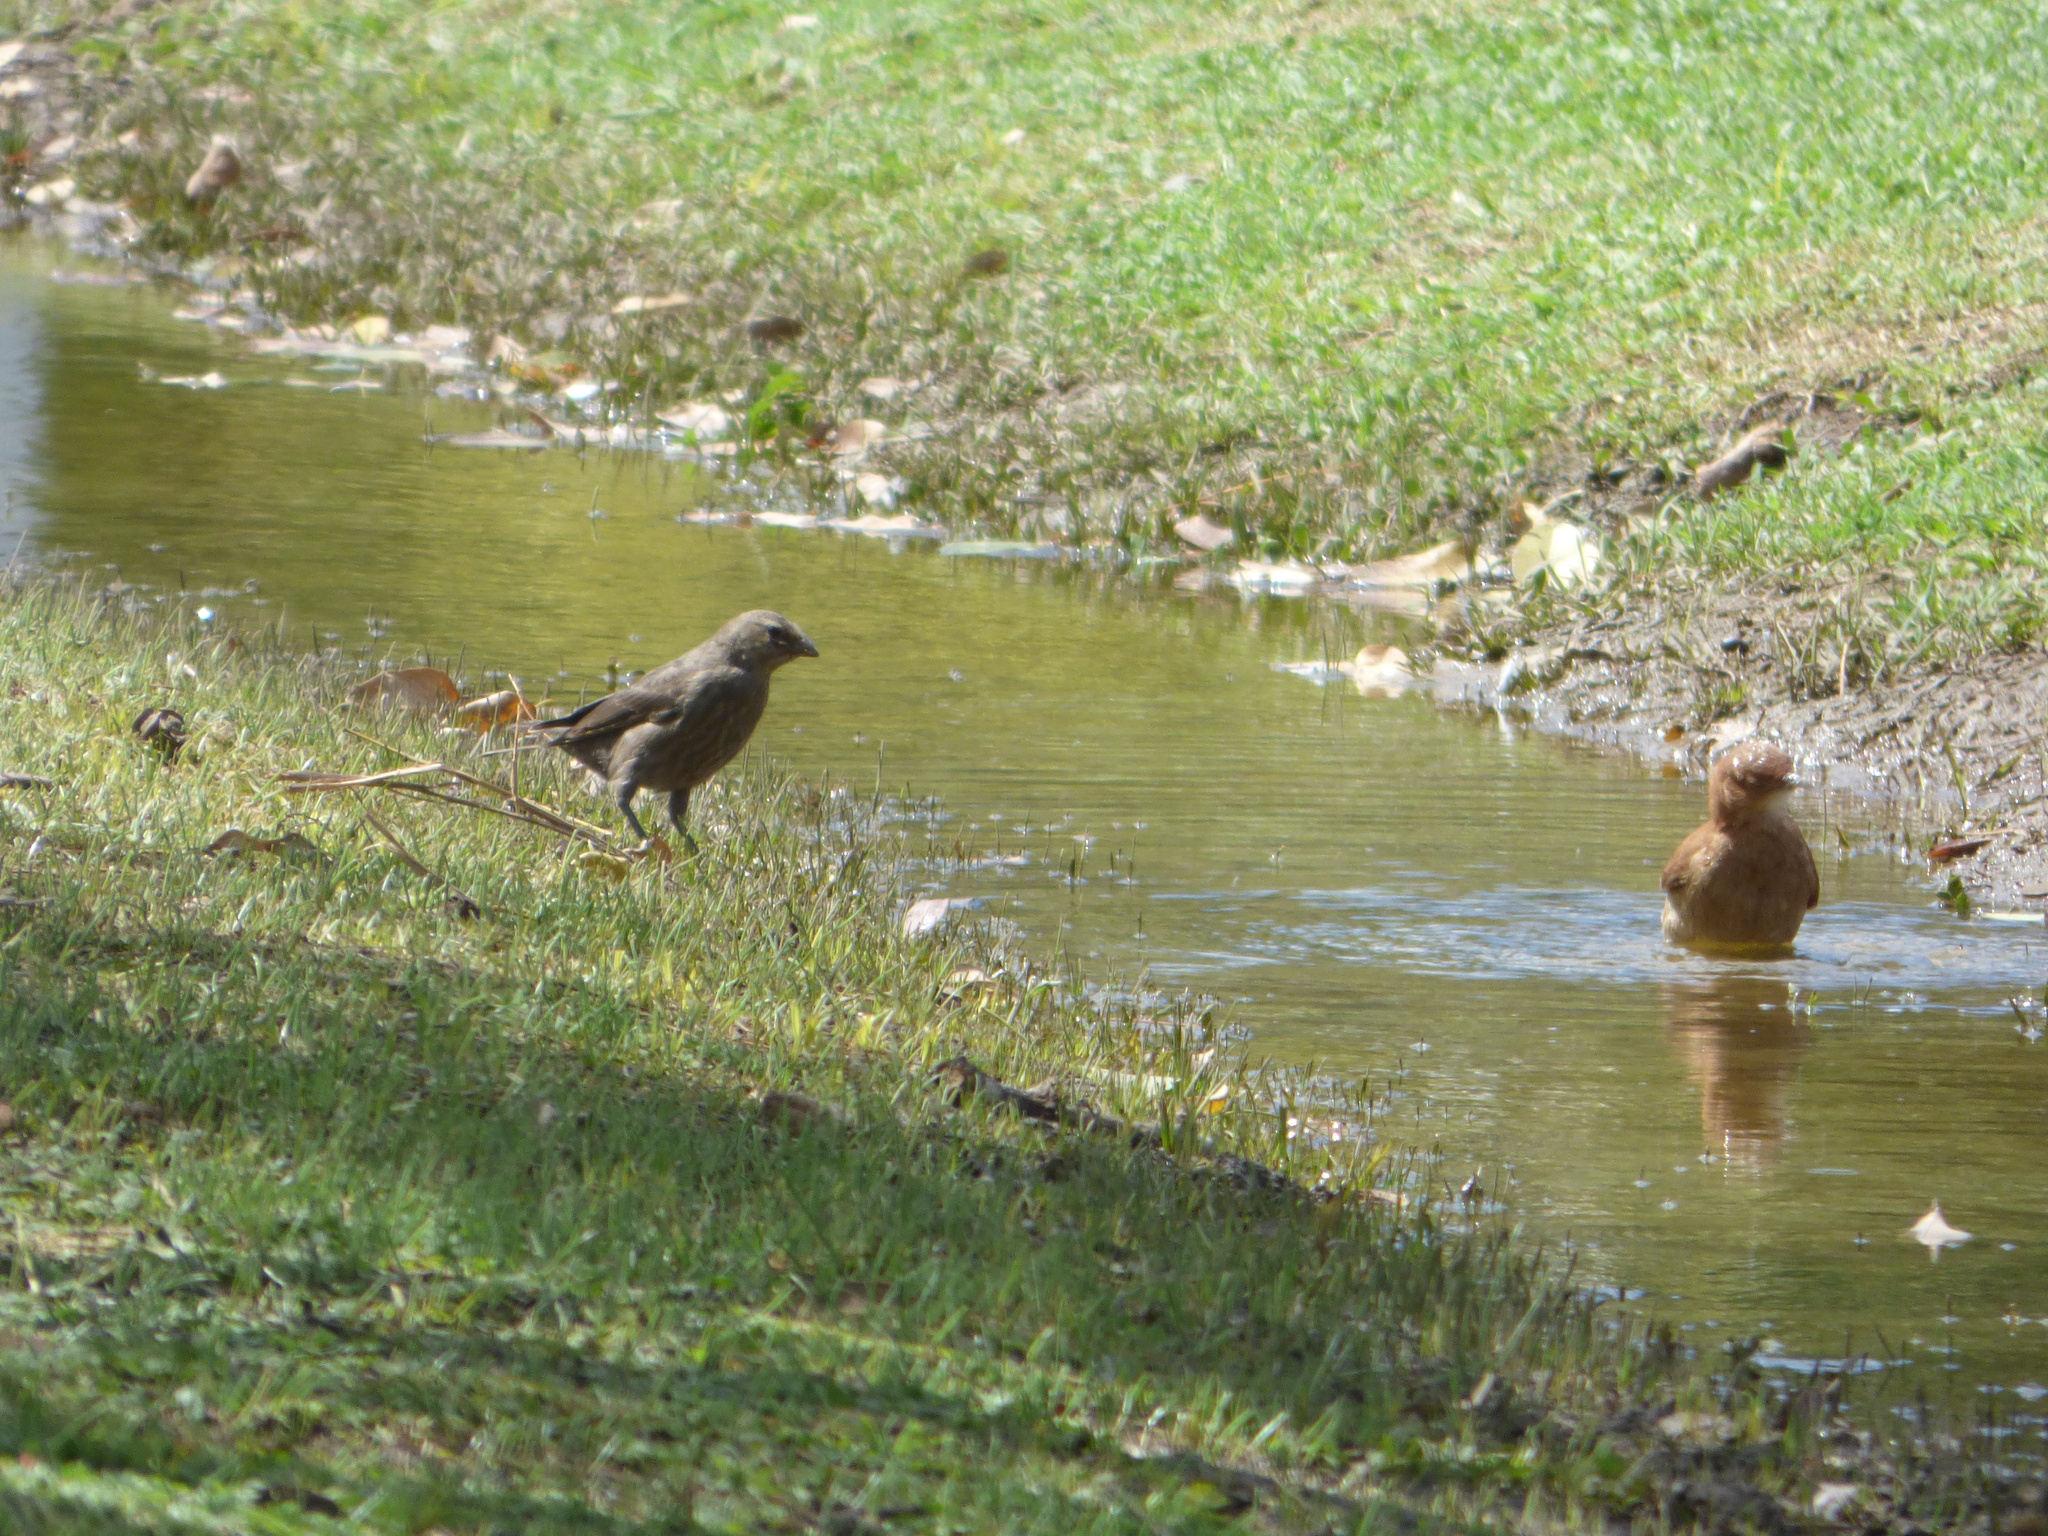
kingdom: Animalia
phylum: Chordata
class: Aves
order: Passeriformes
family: Icteridae
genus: Molothrus
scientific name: Molothrus bonariensis
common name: Shiny cowbird
